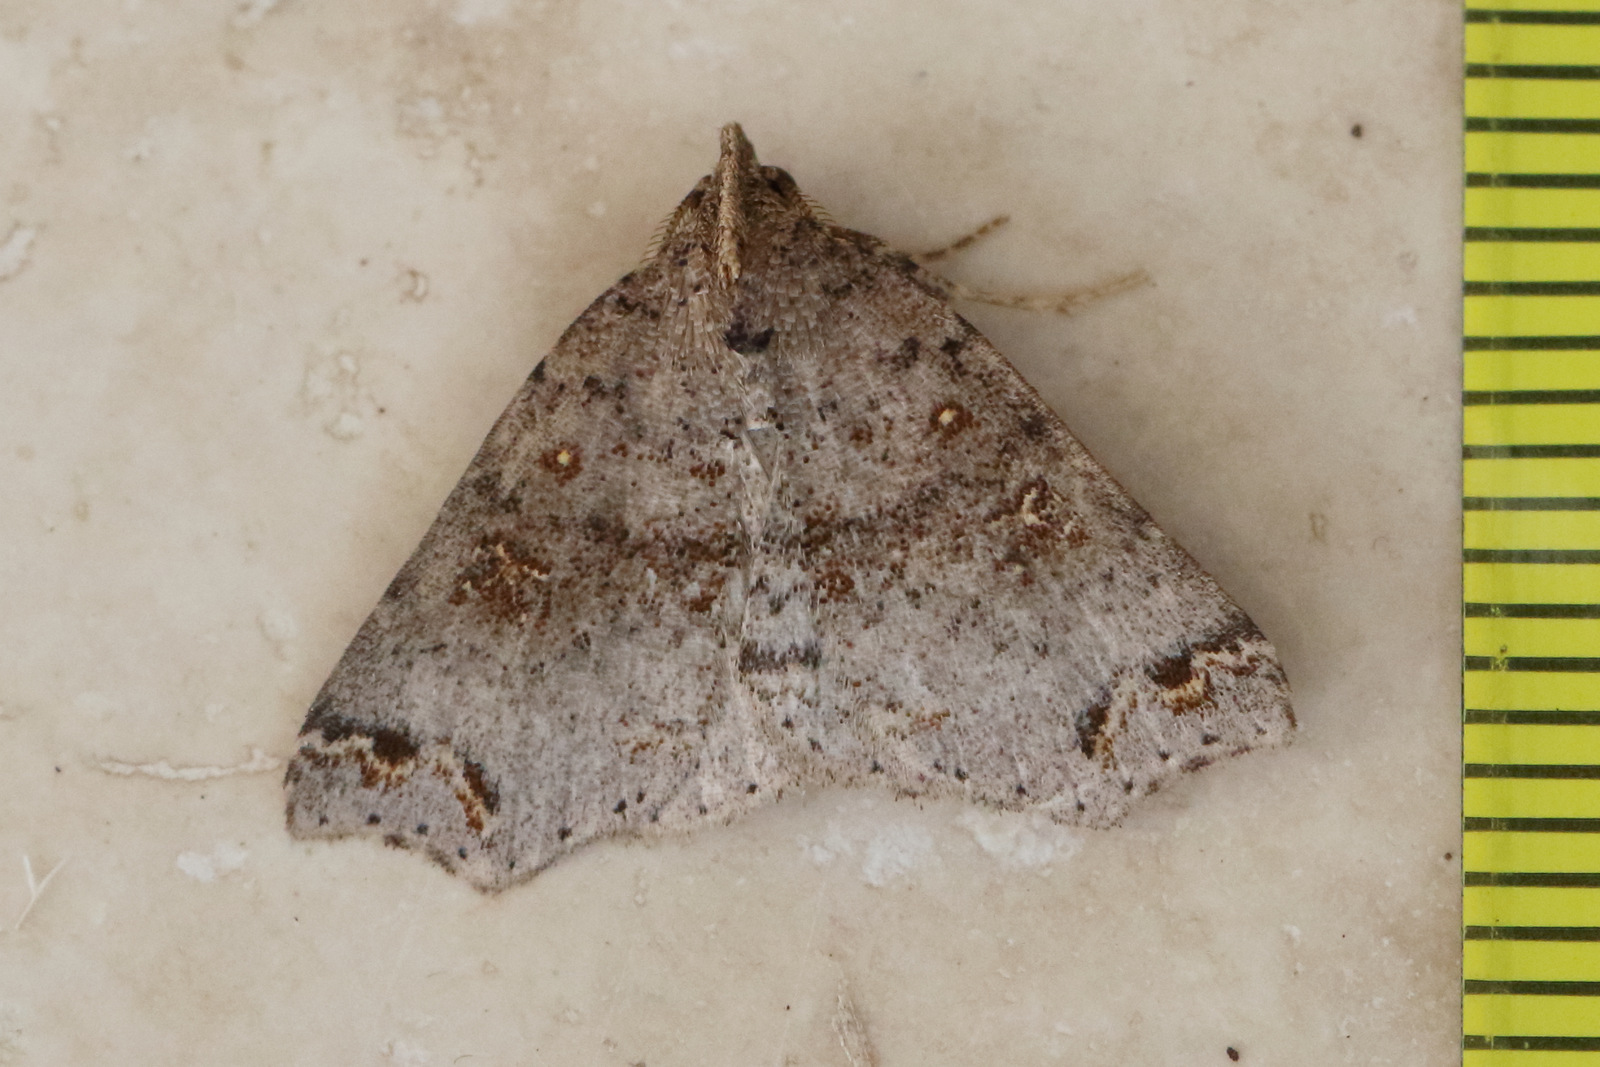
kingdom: Animalia
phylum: Arthropoda
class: Insecta
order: Lepidoptera
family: Erebidae
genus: Lithilaria
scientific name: Lithilaria proestans
